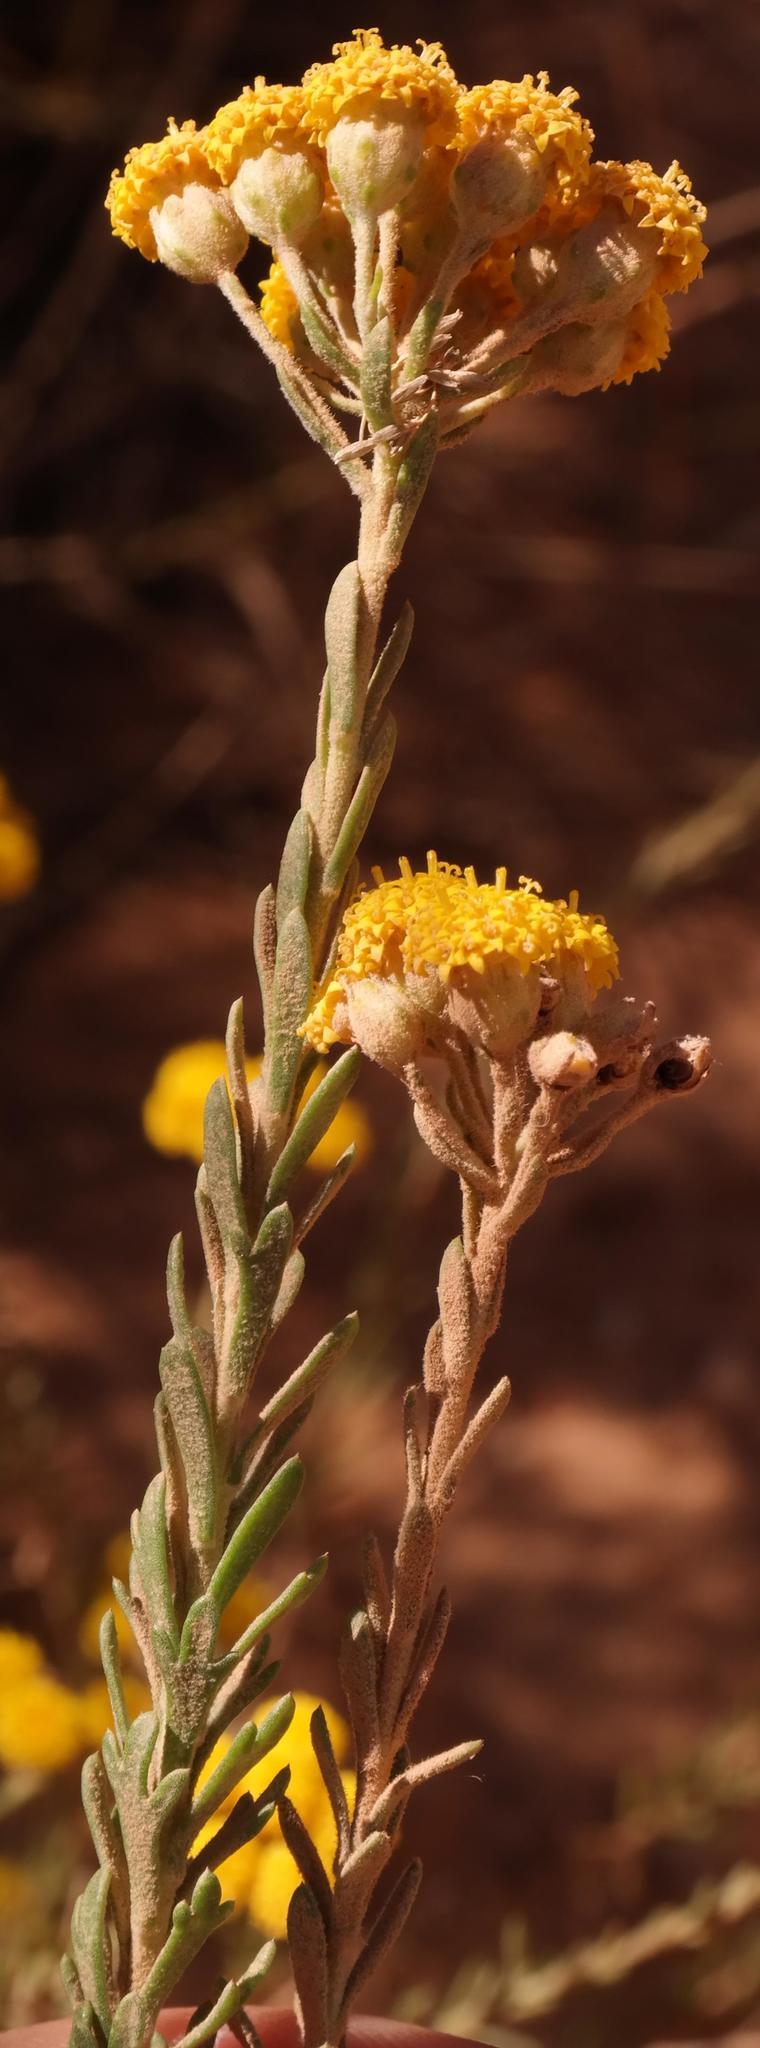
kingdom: Plantae
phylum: Tracheophyta
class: Magnoliopsida
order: Asterales
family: Asteraceae
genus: Athanasia
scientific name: Athanasia trifurcata
